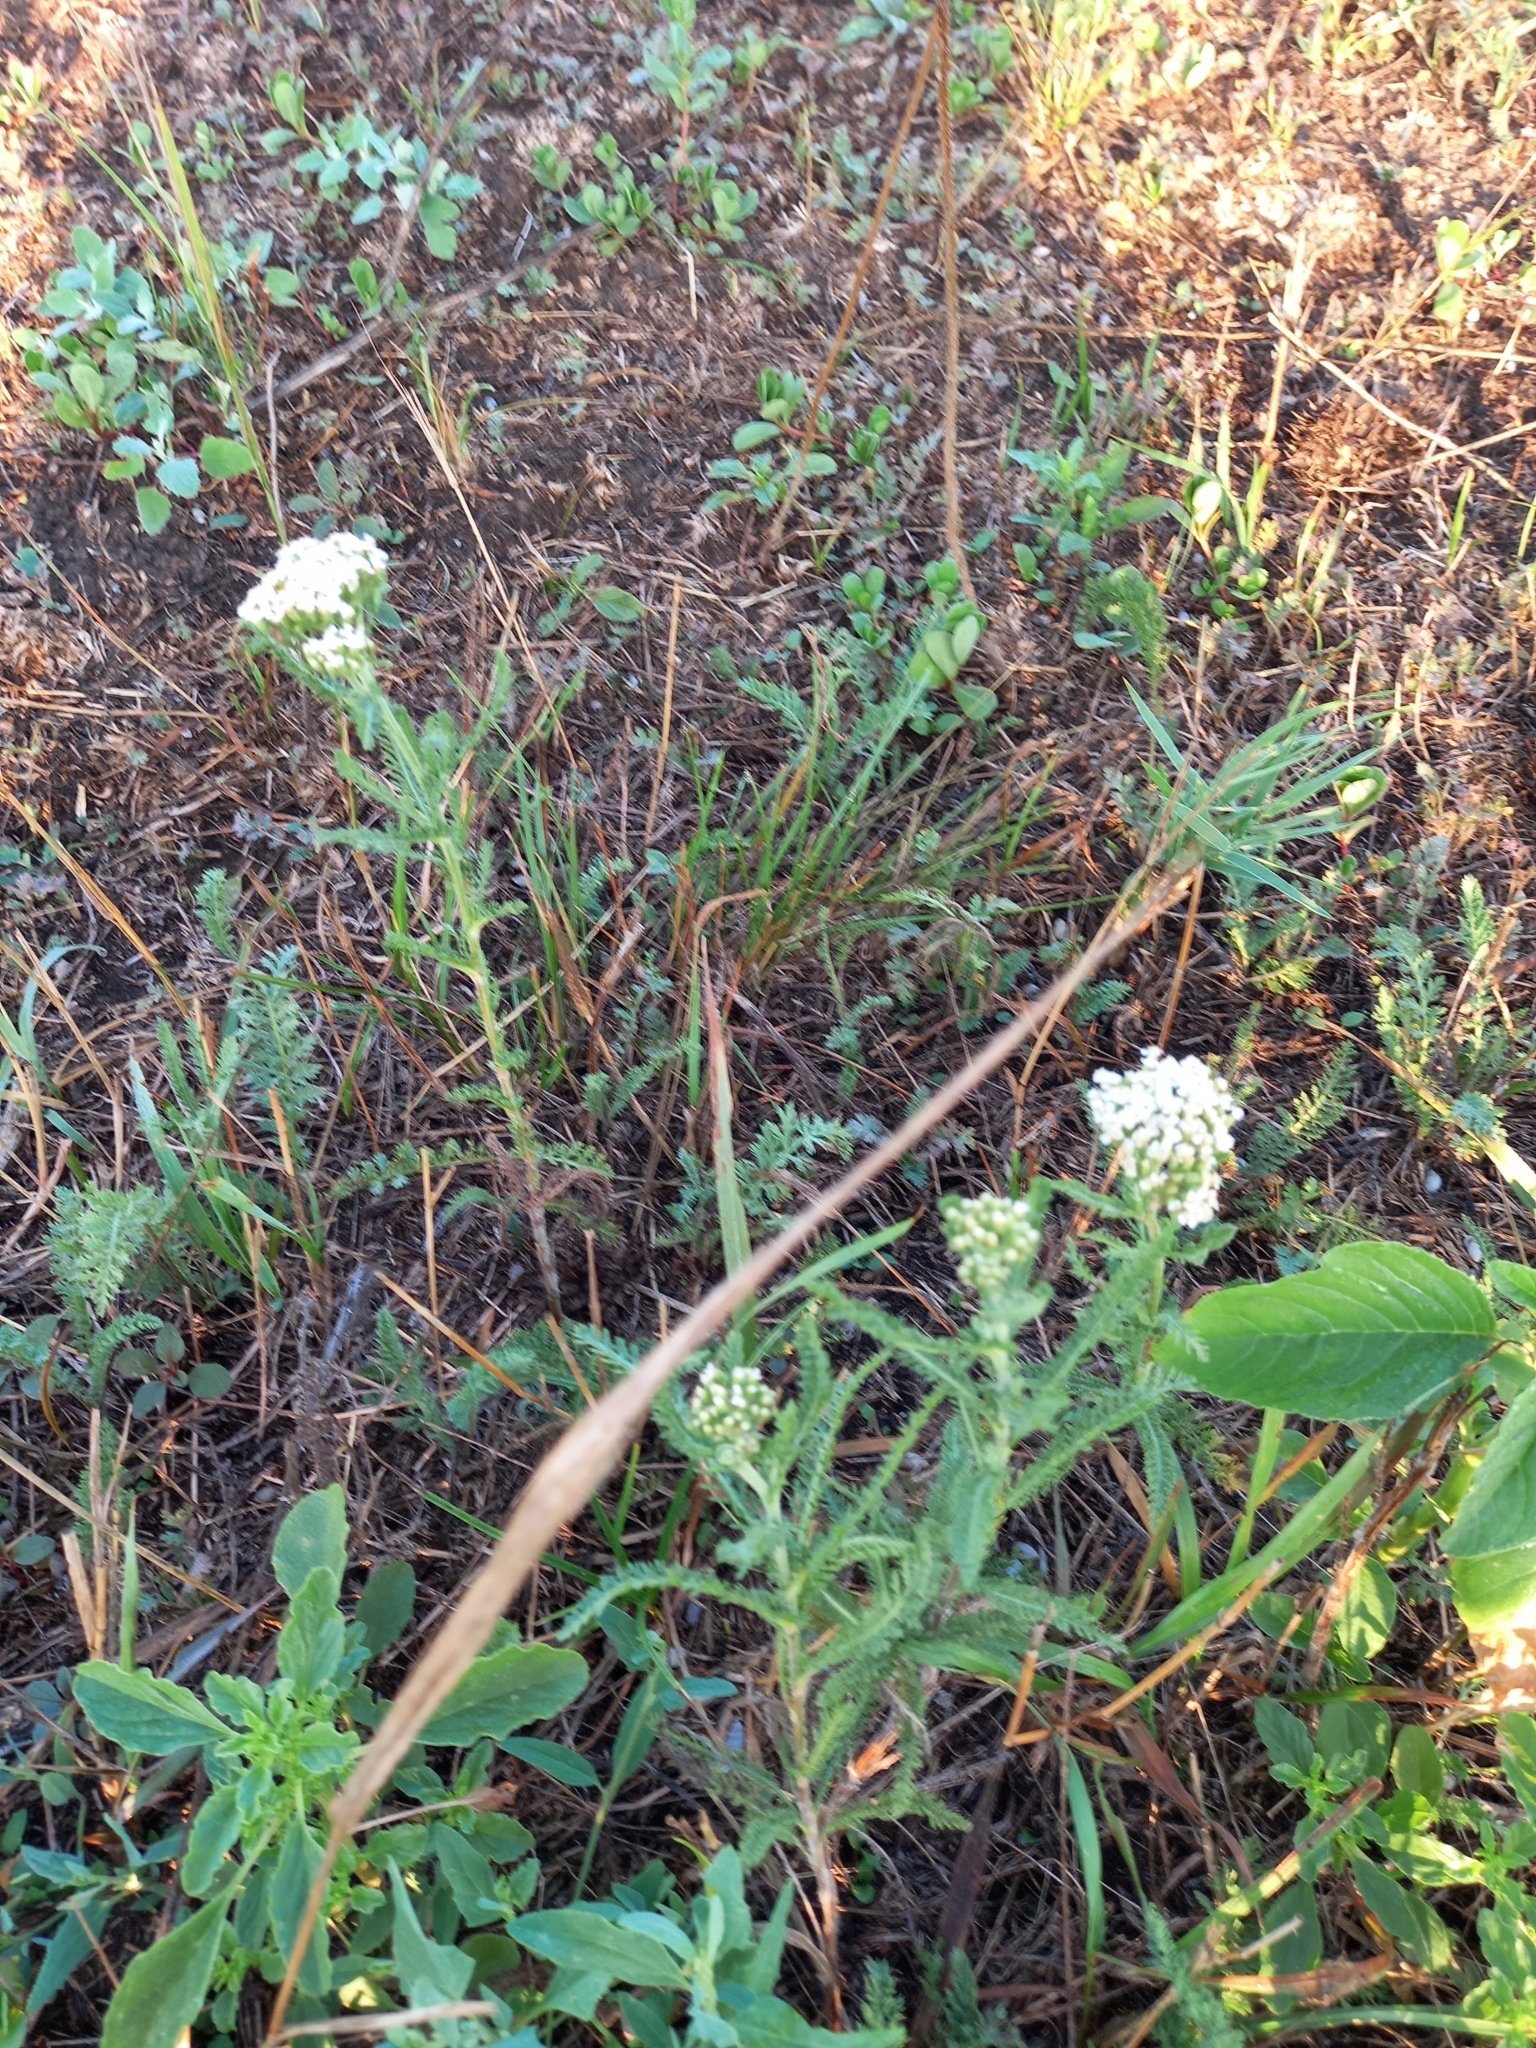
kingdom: Plantae
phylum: Tracheophyta
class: Magnoliopsida
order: Asterales
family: Asteraceae
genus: Achillea
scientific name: Achillea millefolium
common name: Yarrow
